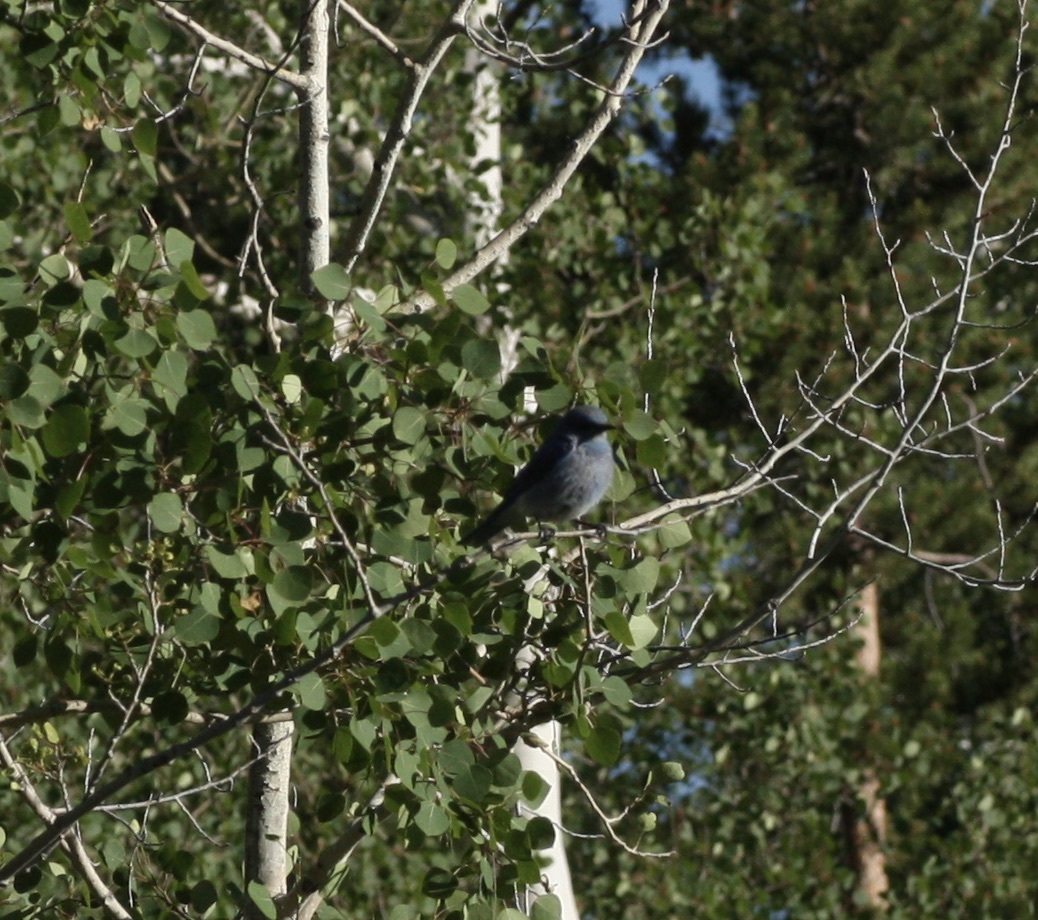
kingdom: Animalia
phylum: Chordata
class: Aves
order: Passeriformes
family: Turdidae
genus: Sialia
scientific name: Sialia currucoides
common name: Mountain bluebird
